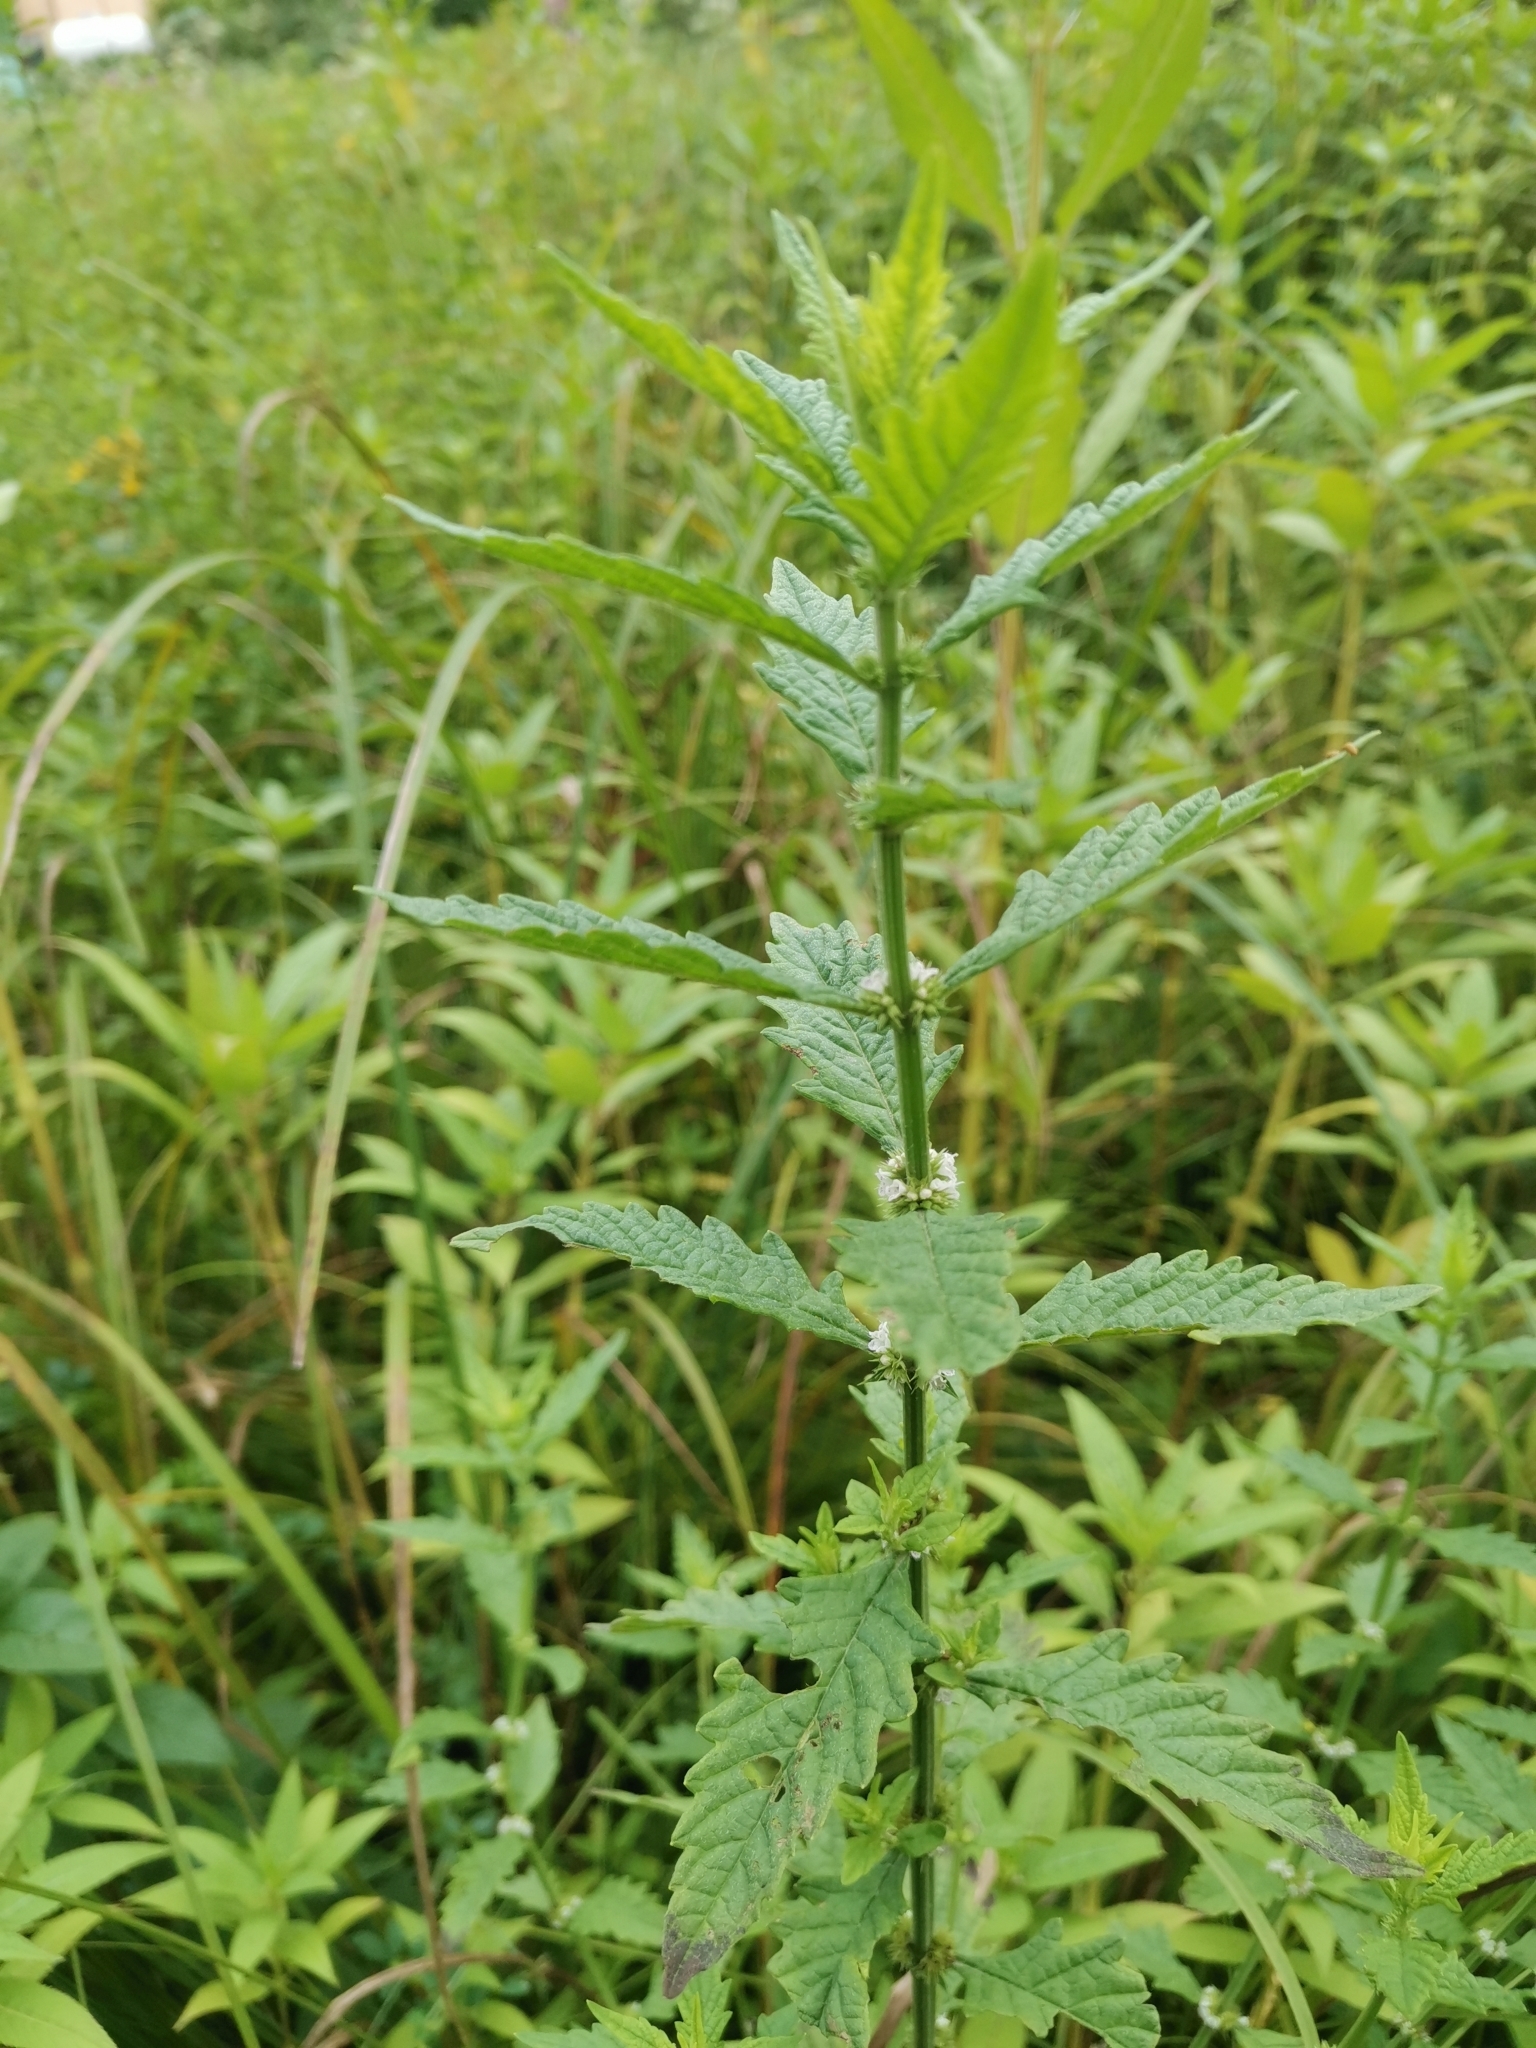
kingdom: Plantae
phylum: Tracheophyta
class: Magnoliopsida
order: Lamiales
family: Lamiaceae
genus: Lycopus
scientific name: Lycopus europaeus
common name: European bugleweed
